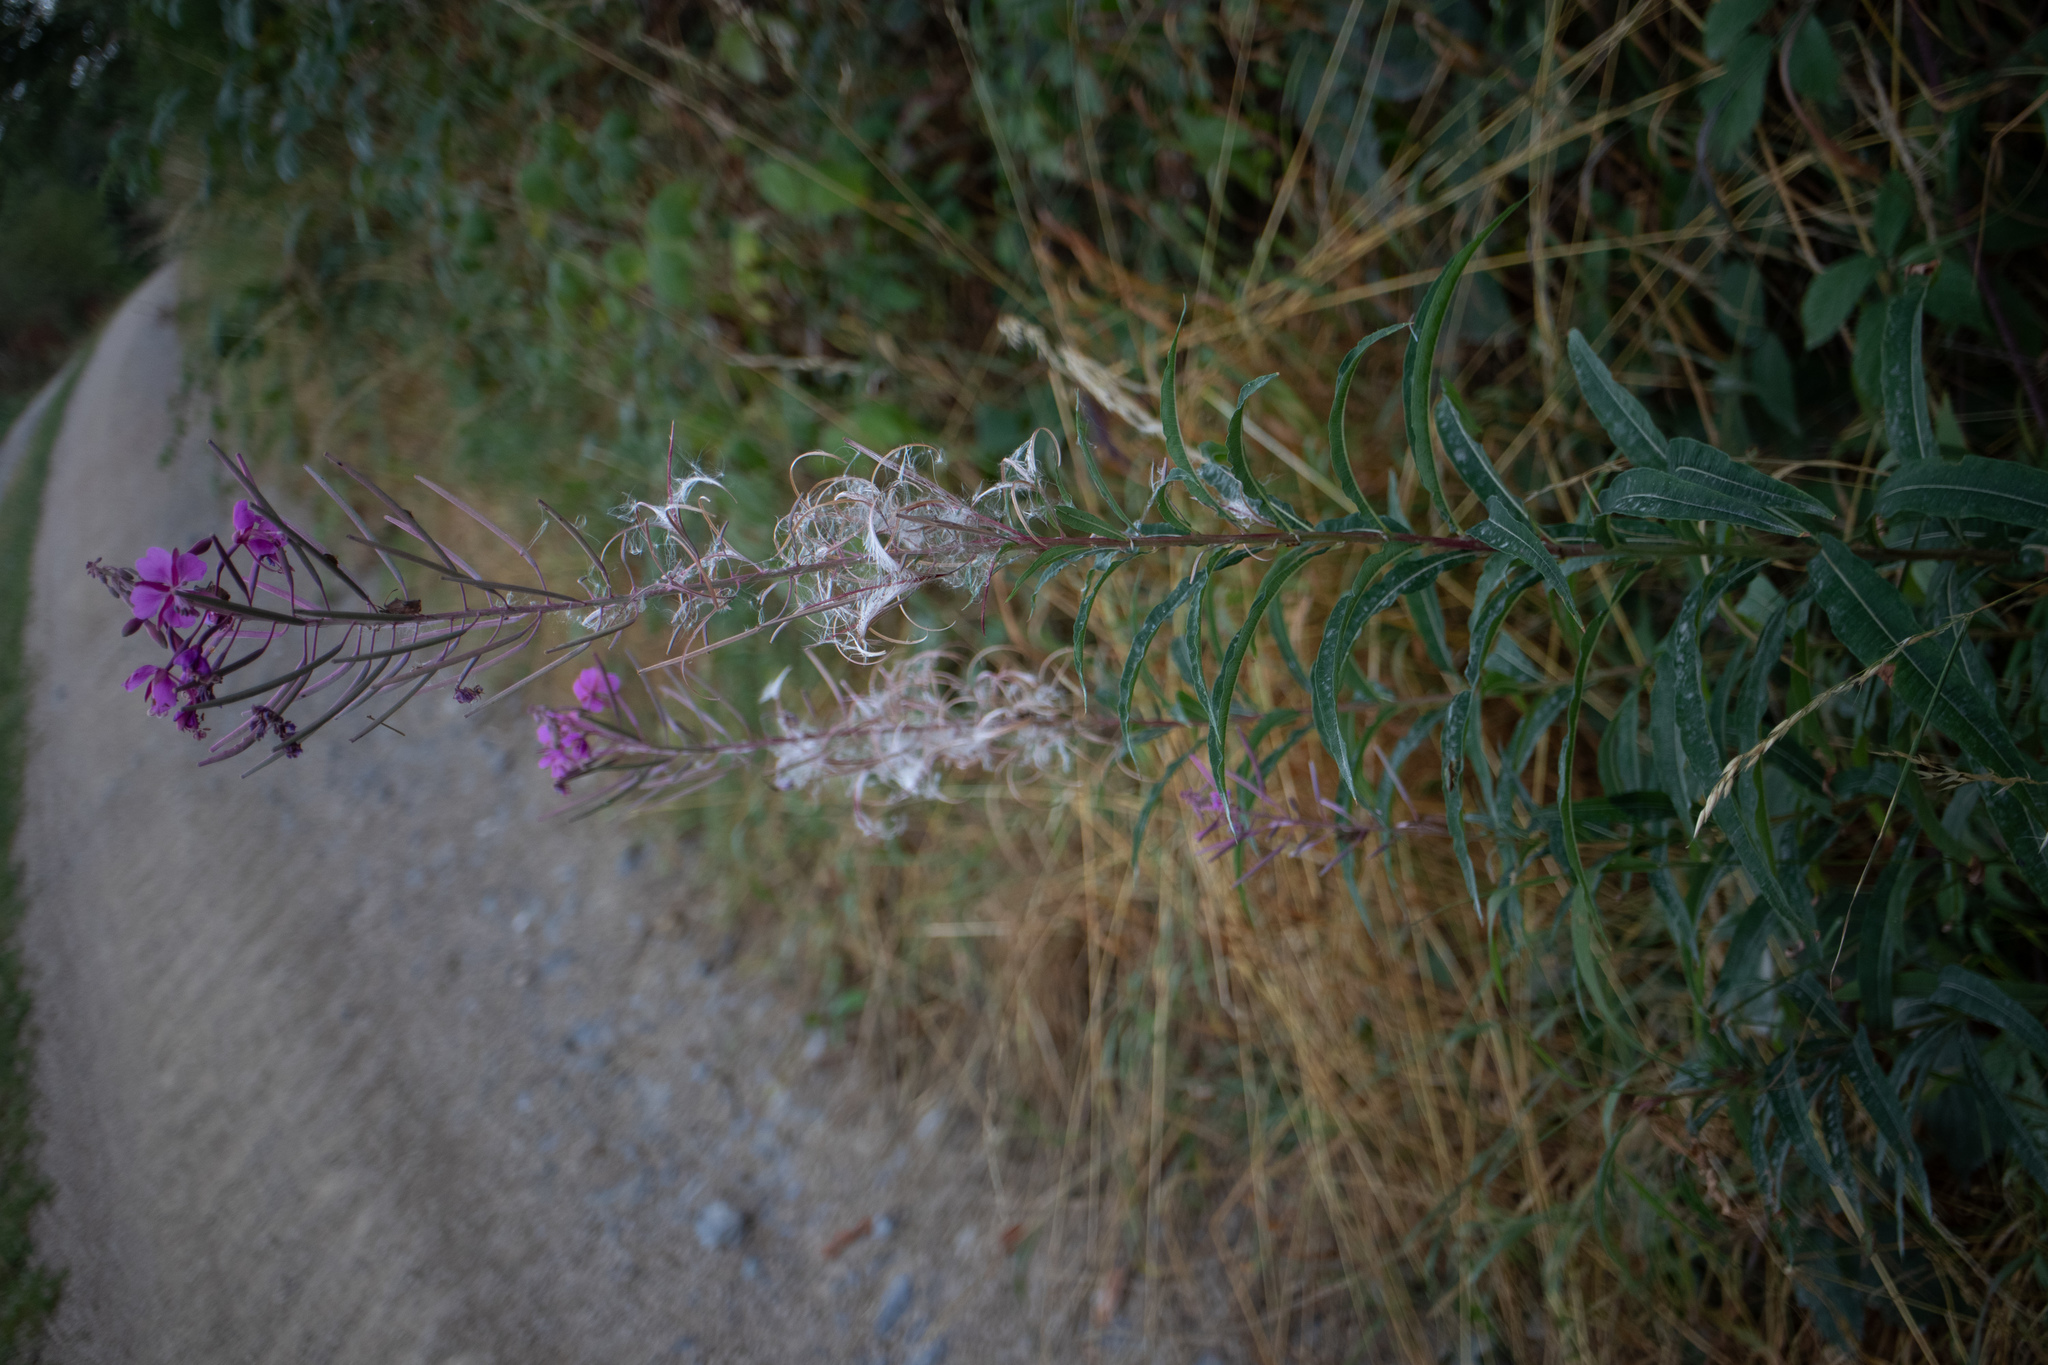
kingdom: Plantae
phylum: Tracheophyta
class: Magnoliopsida
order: Myrtales
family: Onagraceae
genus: Chamaenerion
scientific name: Chamaenerion angustifolium
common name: Fireweed
